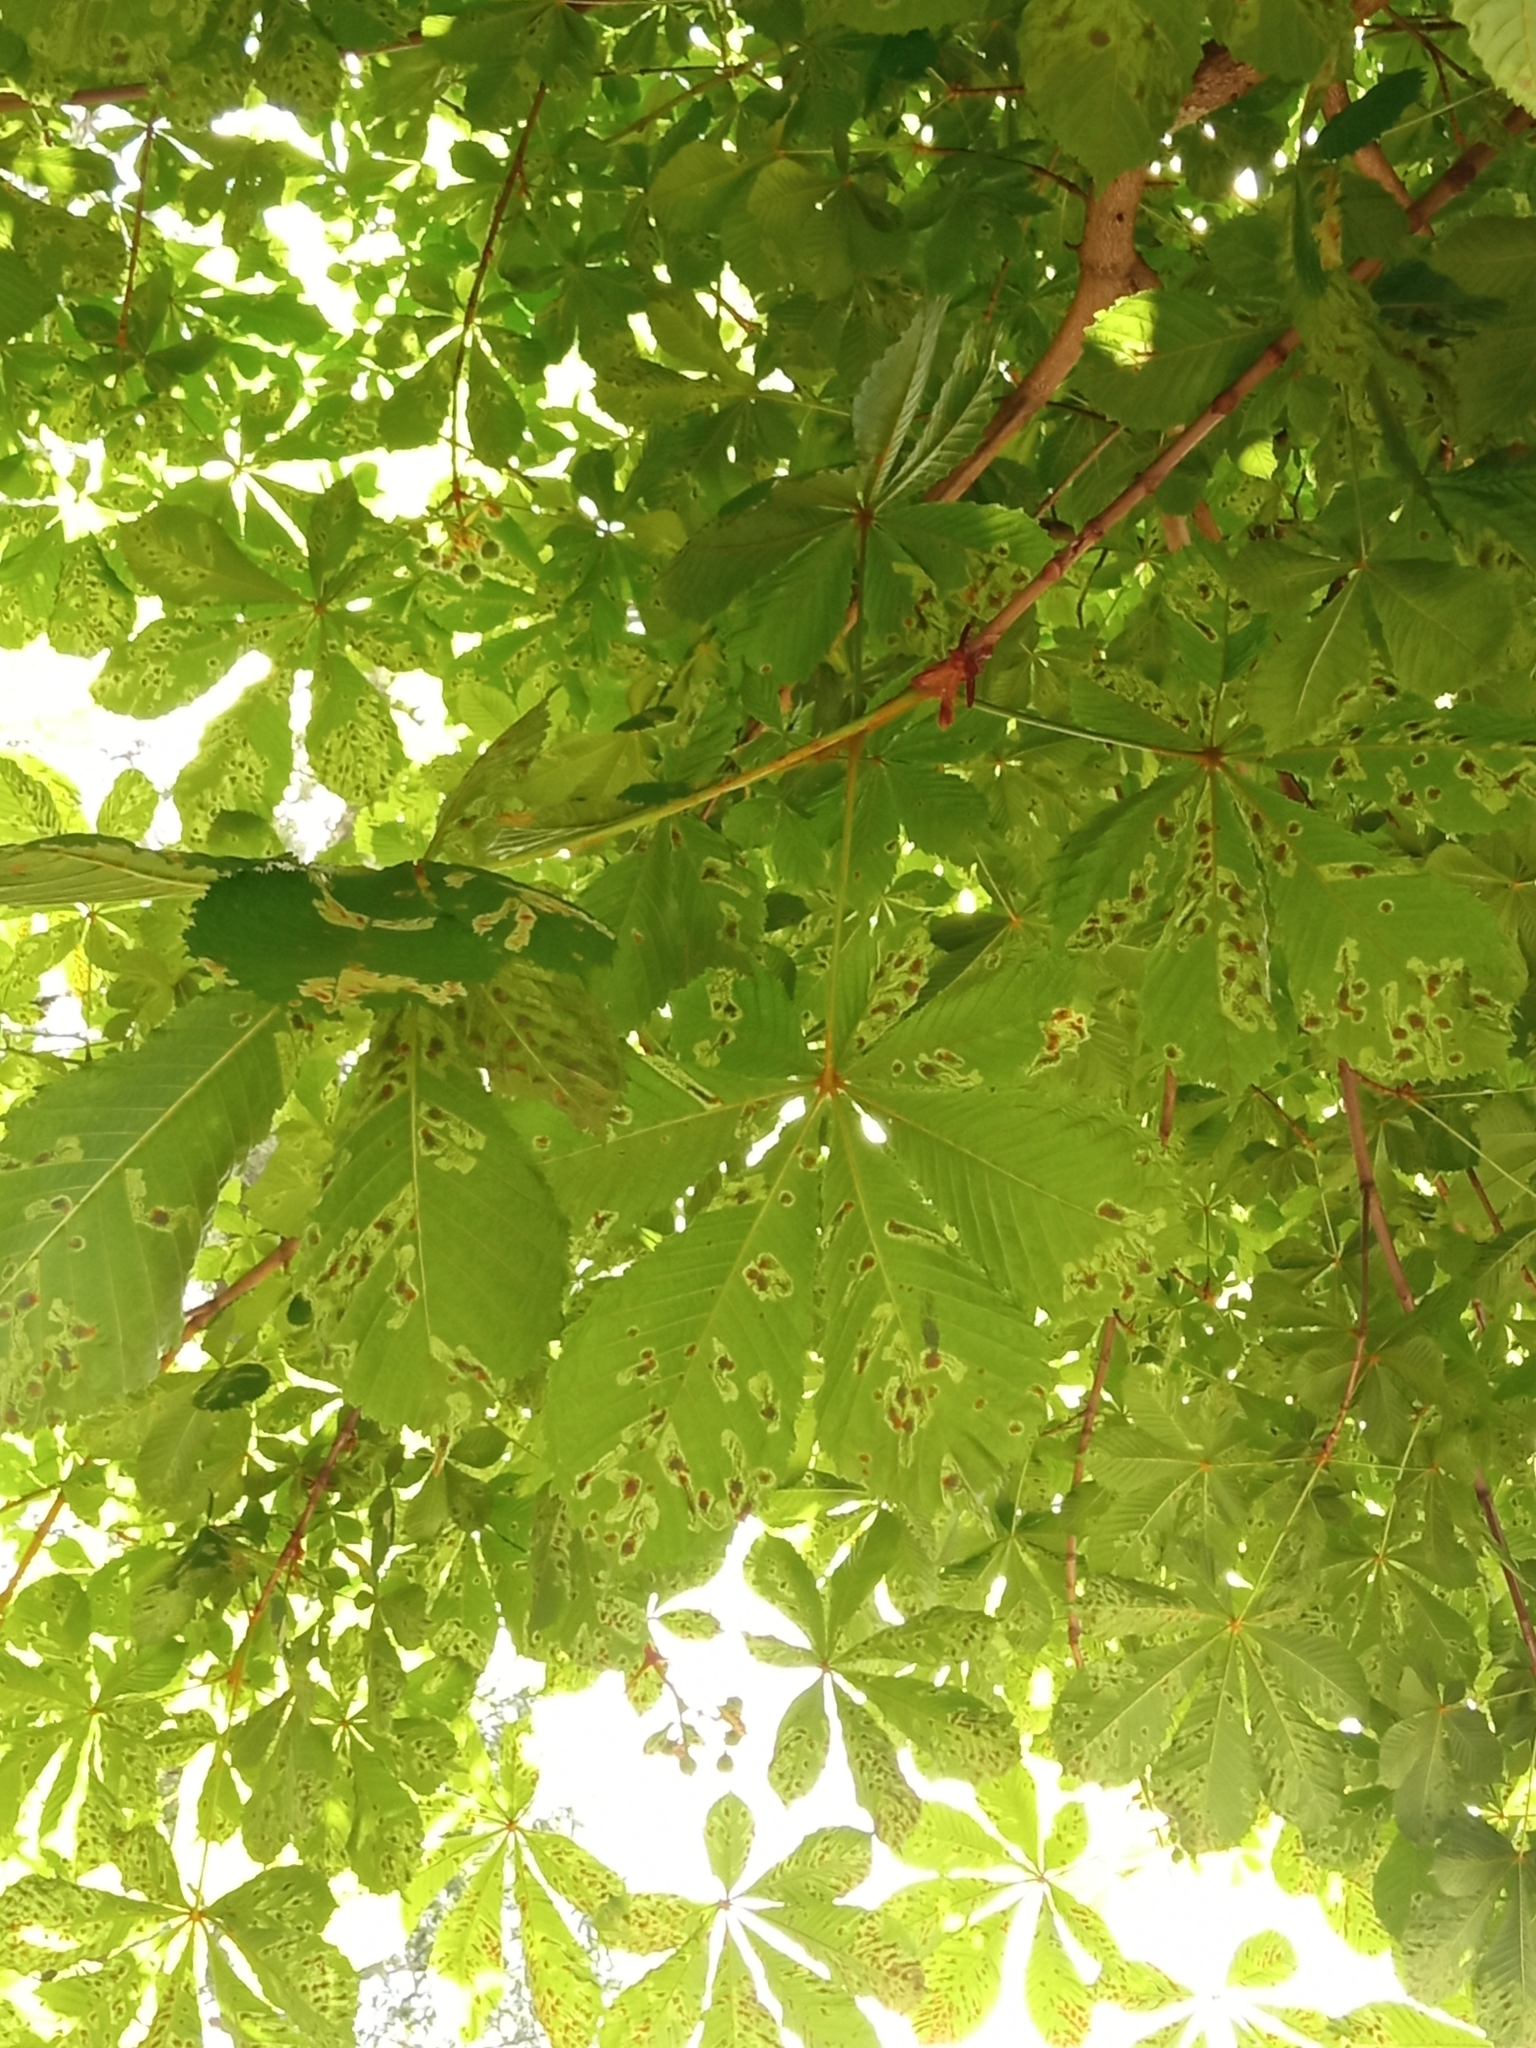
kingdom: Plantae
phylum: Tracheophyta
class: Magnoliopsida
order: Sapindales
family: Sapindaceae
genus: Aesculus
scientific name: Aesculus hippocastanum
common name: Horse-chestnut
